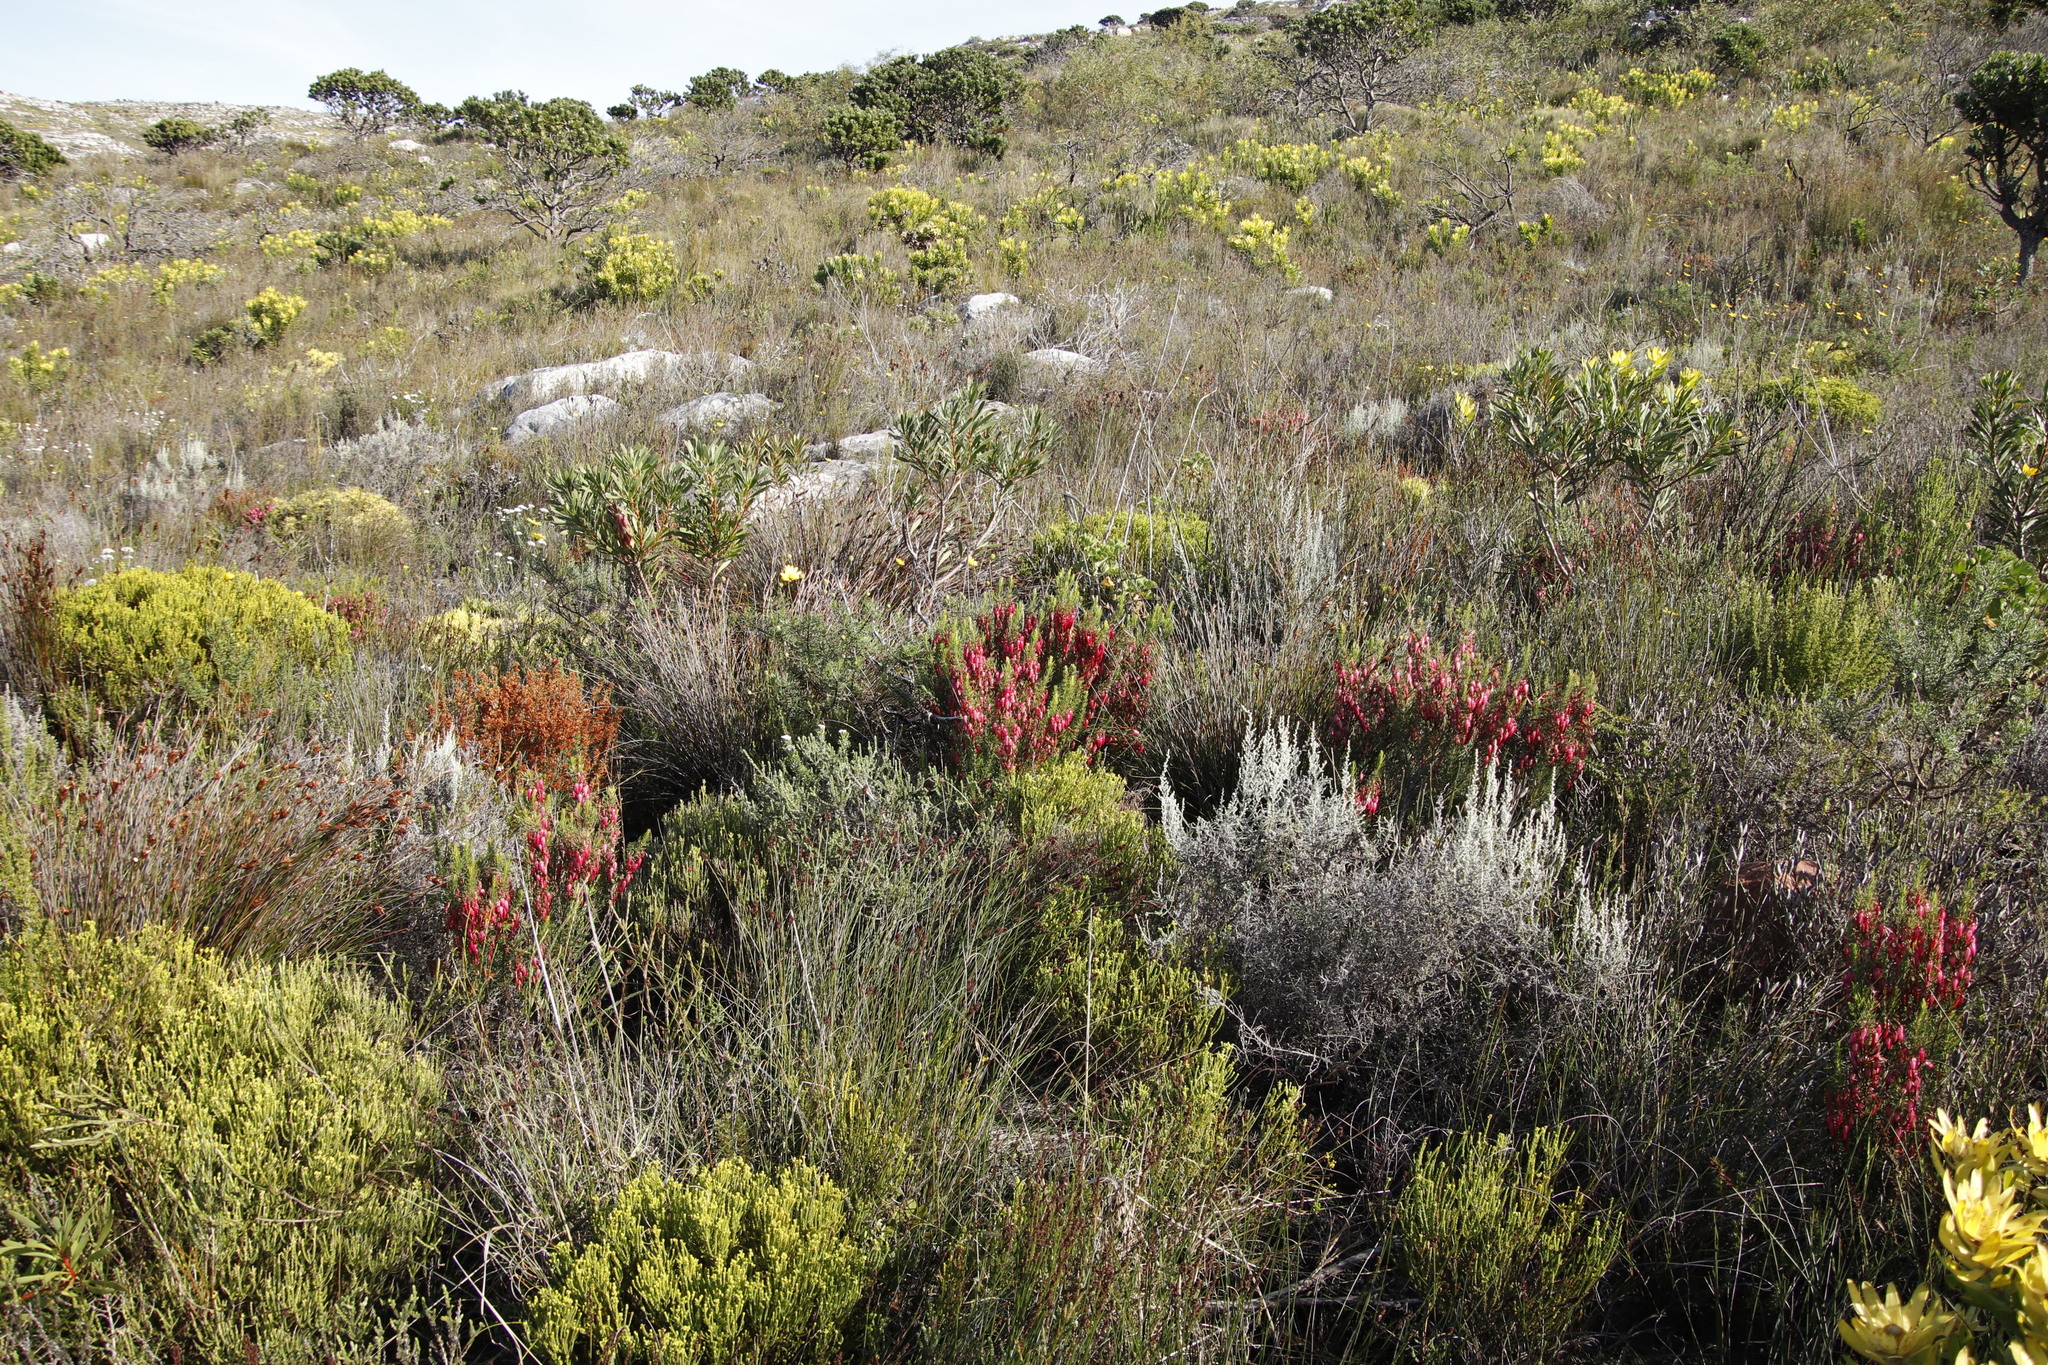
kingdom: Plantae
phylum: Tracheophyta
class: Magnoliopsida
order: Ericales
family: Ericaceae
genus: Erica
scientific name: Erica plukenetii
